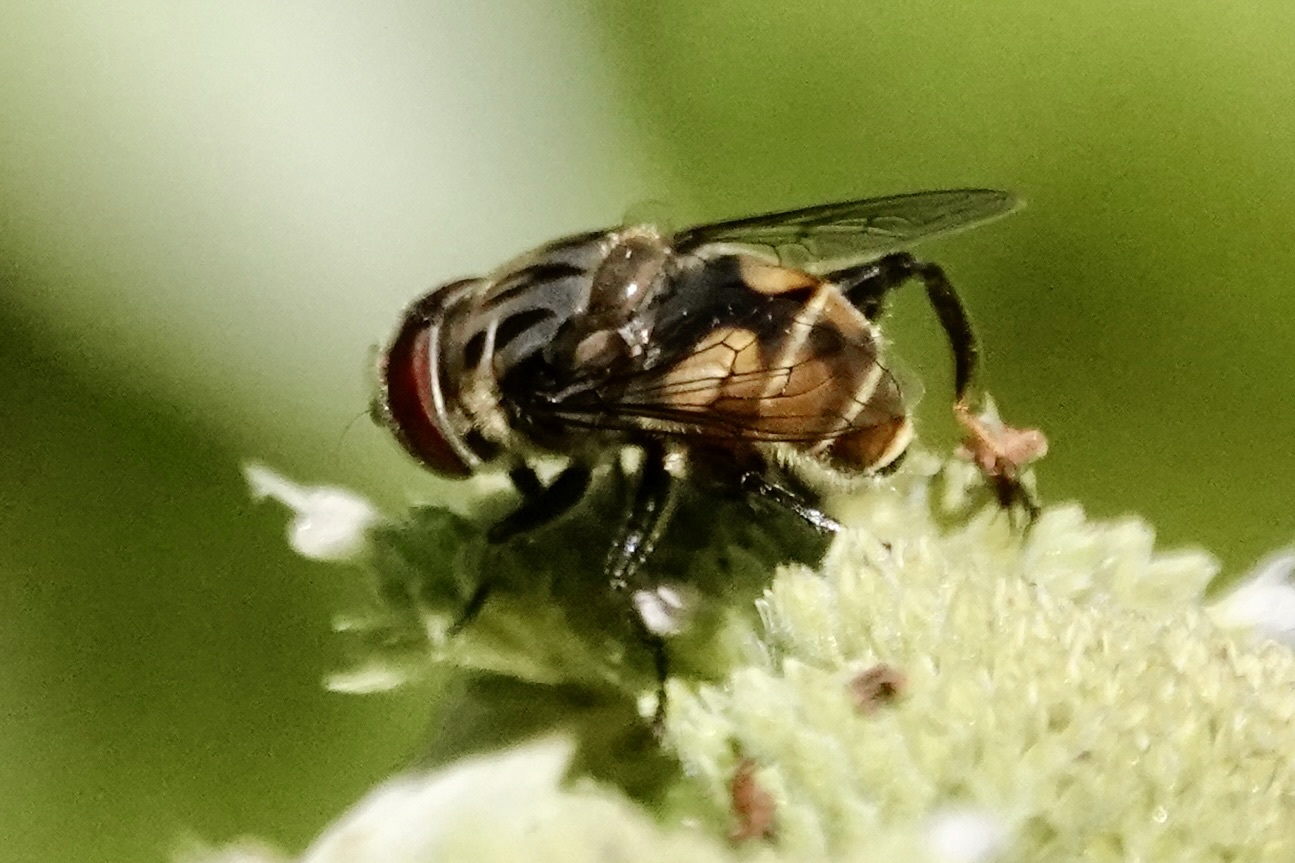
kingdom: Animalia
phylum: Arthropoda
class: Insecta
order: Diptera
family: Syrphidae
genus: Palpada
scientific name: Palpada furcata
